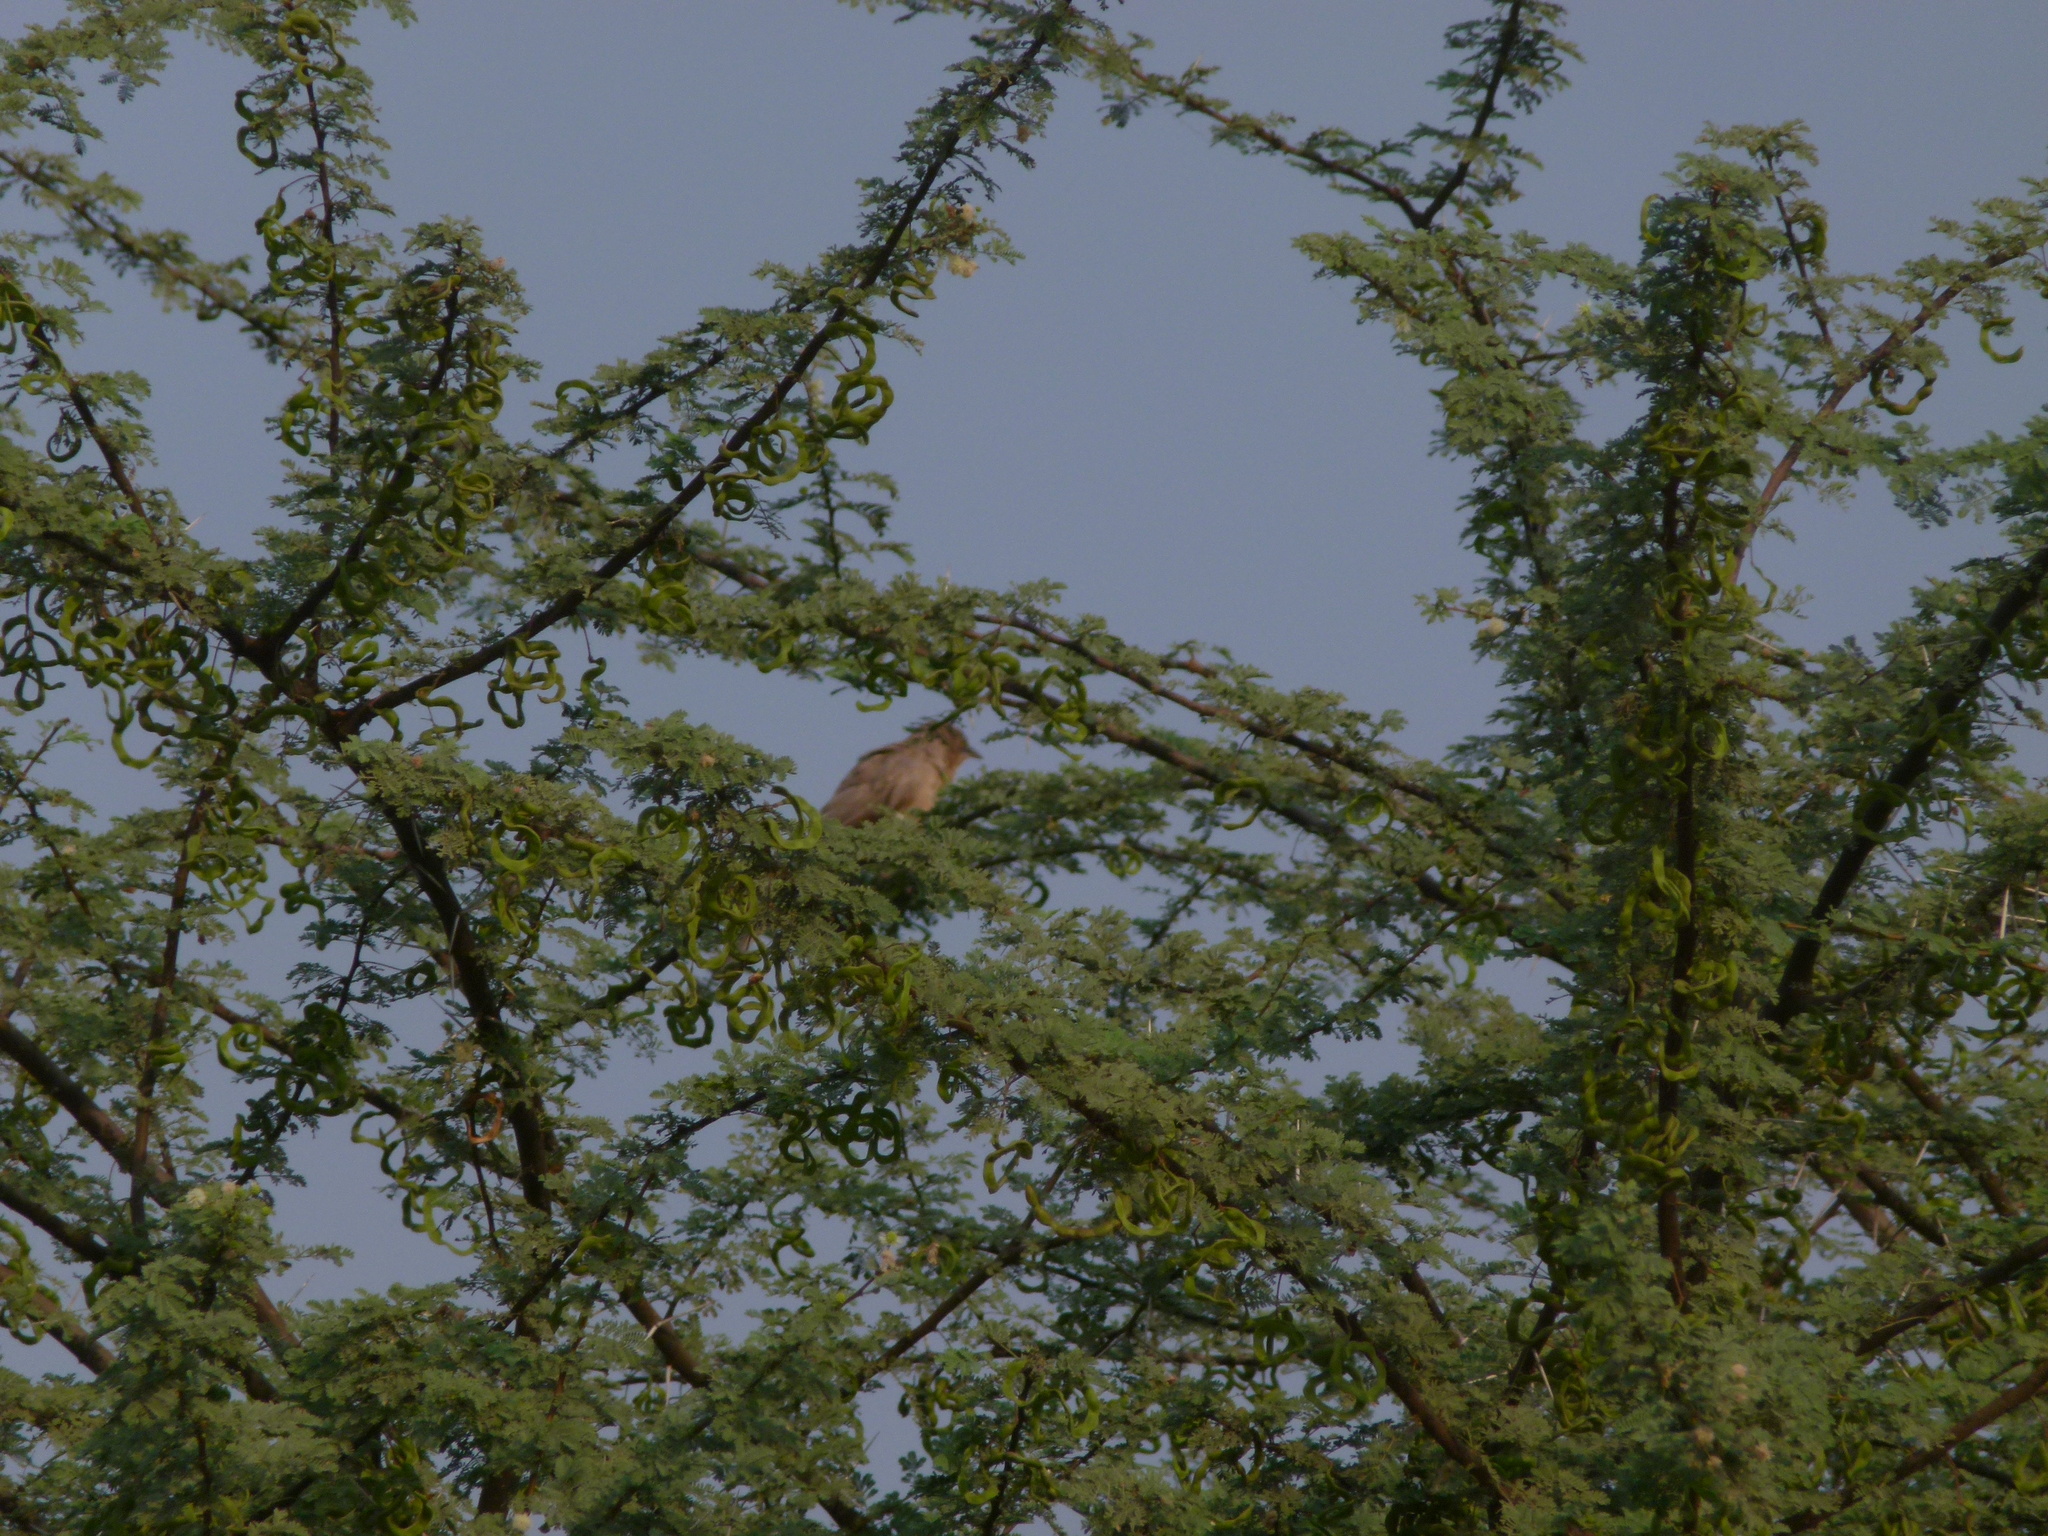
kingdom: Animalia
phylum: Chordata
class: Aves
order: Passeriformes
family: Leiothrichidae
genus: Turdoides
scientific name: Turdoides malcolmi
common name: Large grey babbler
